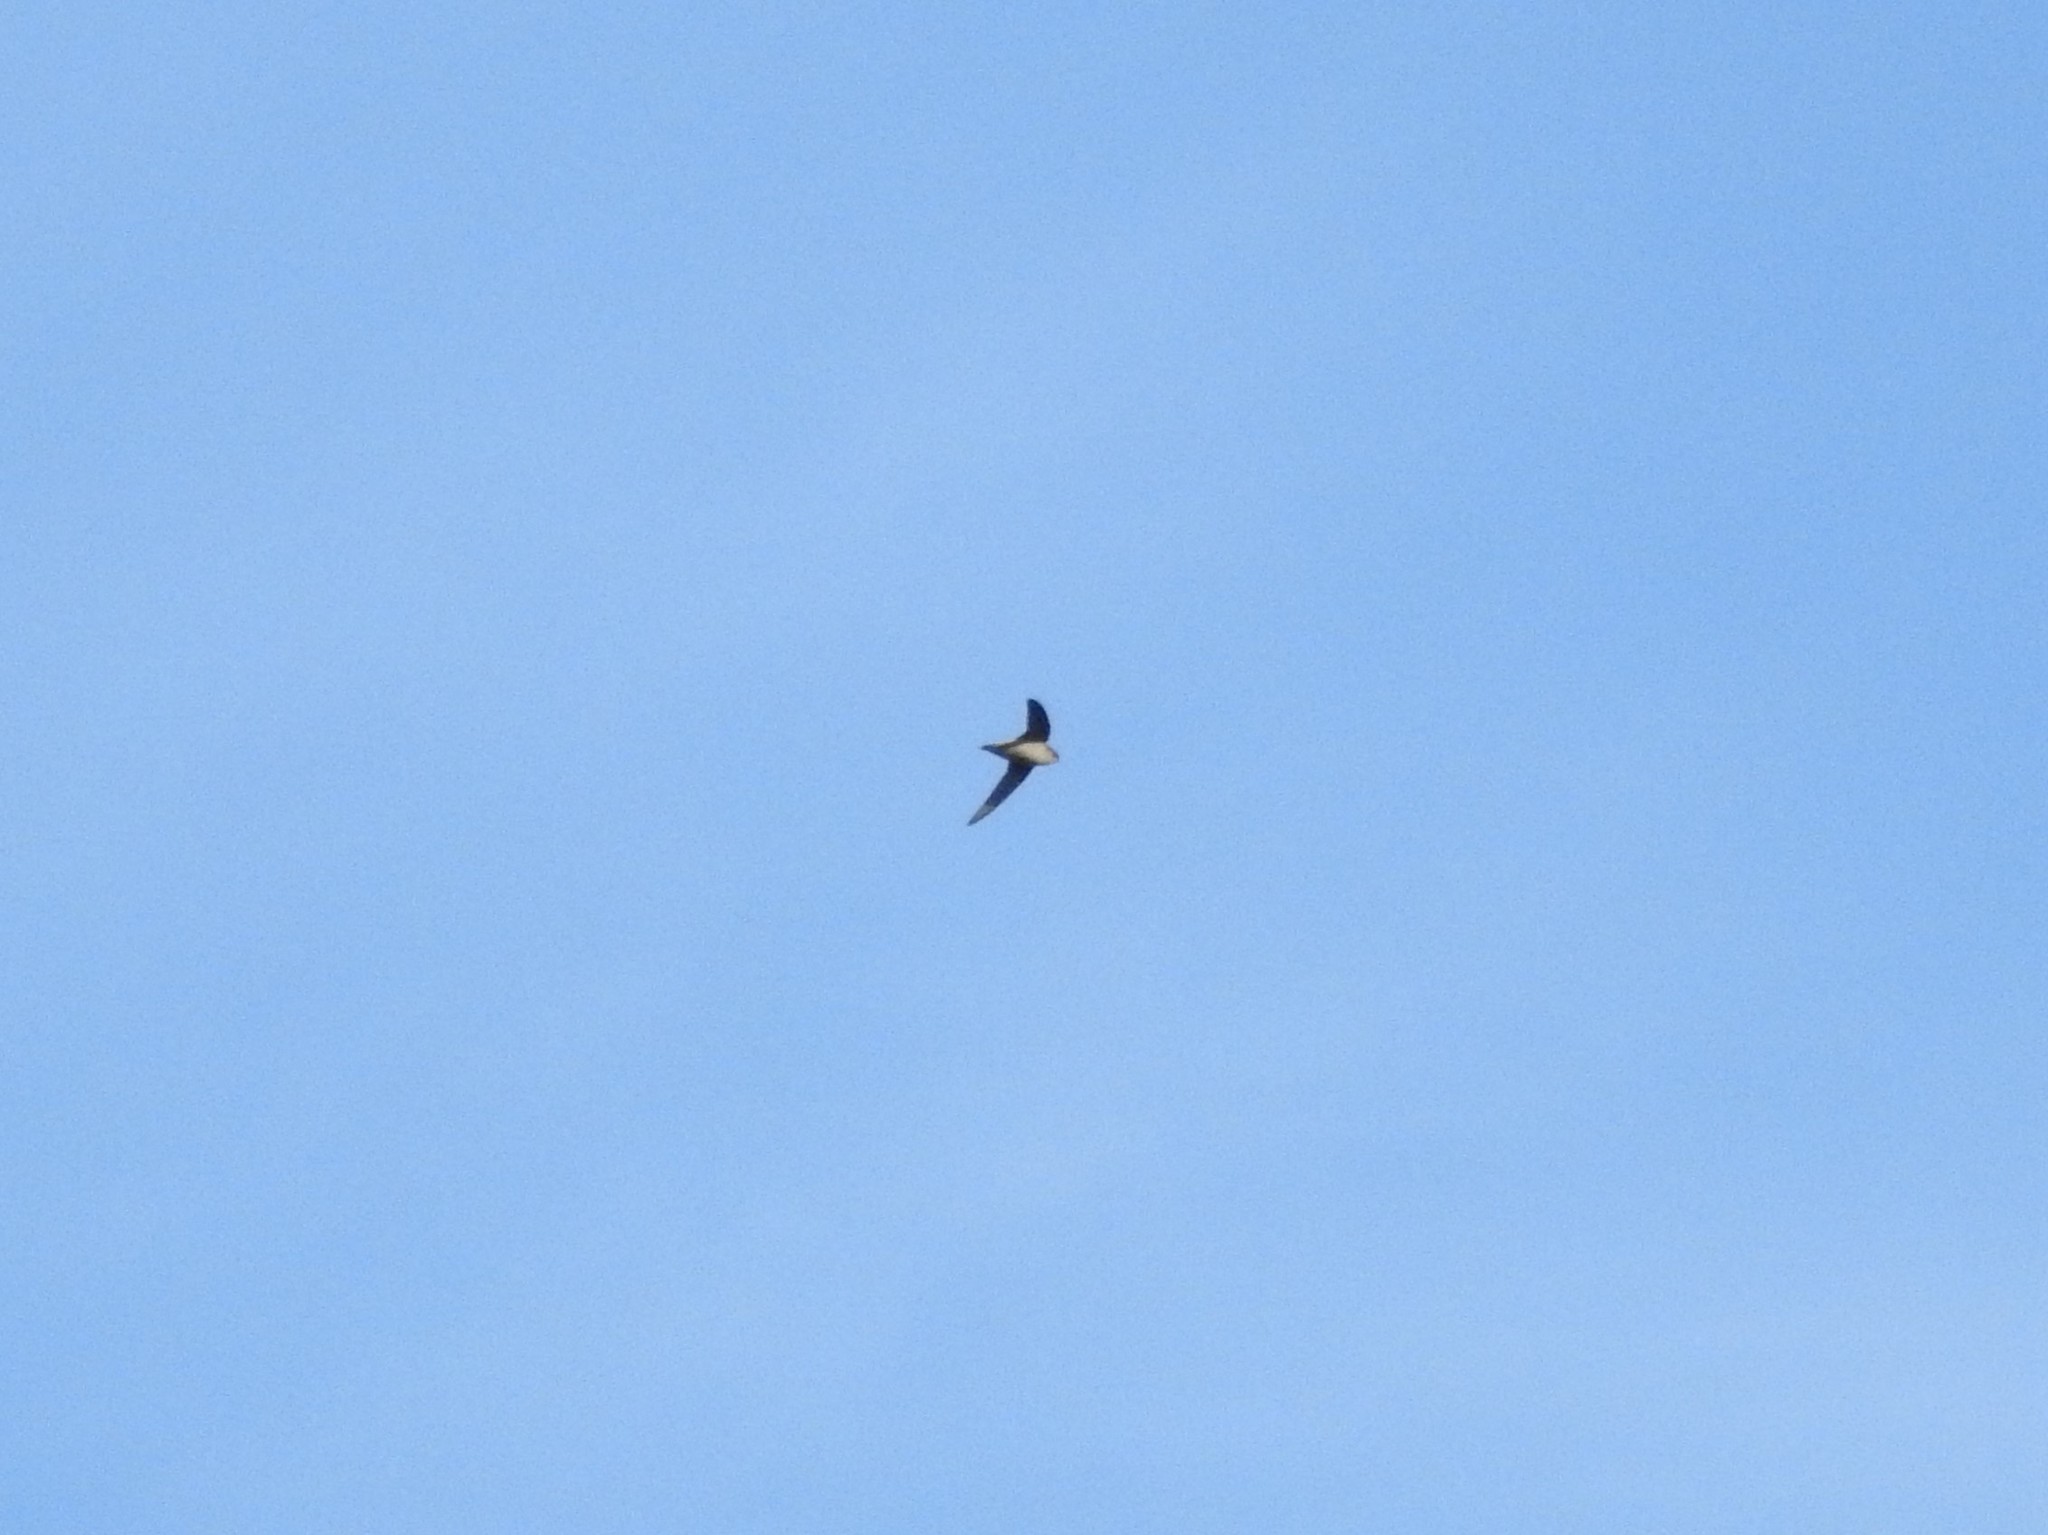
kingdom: Animalia
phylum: Chordata
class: Aves
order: Apodiformes
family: Apodidae
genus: Chaetura
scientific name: Chaetura vauxi
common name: Vaux's swift
